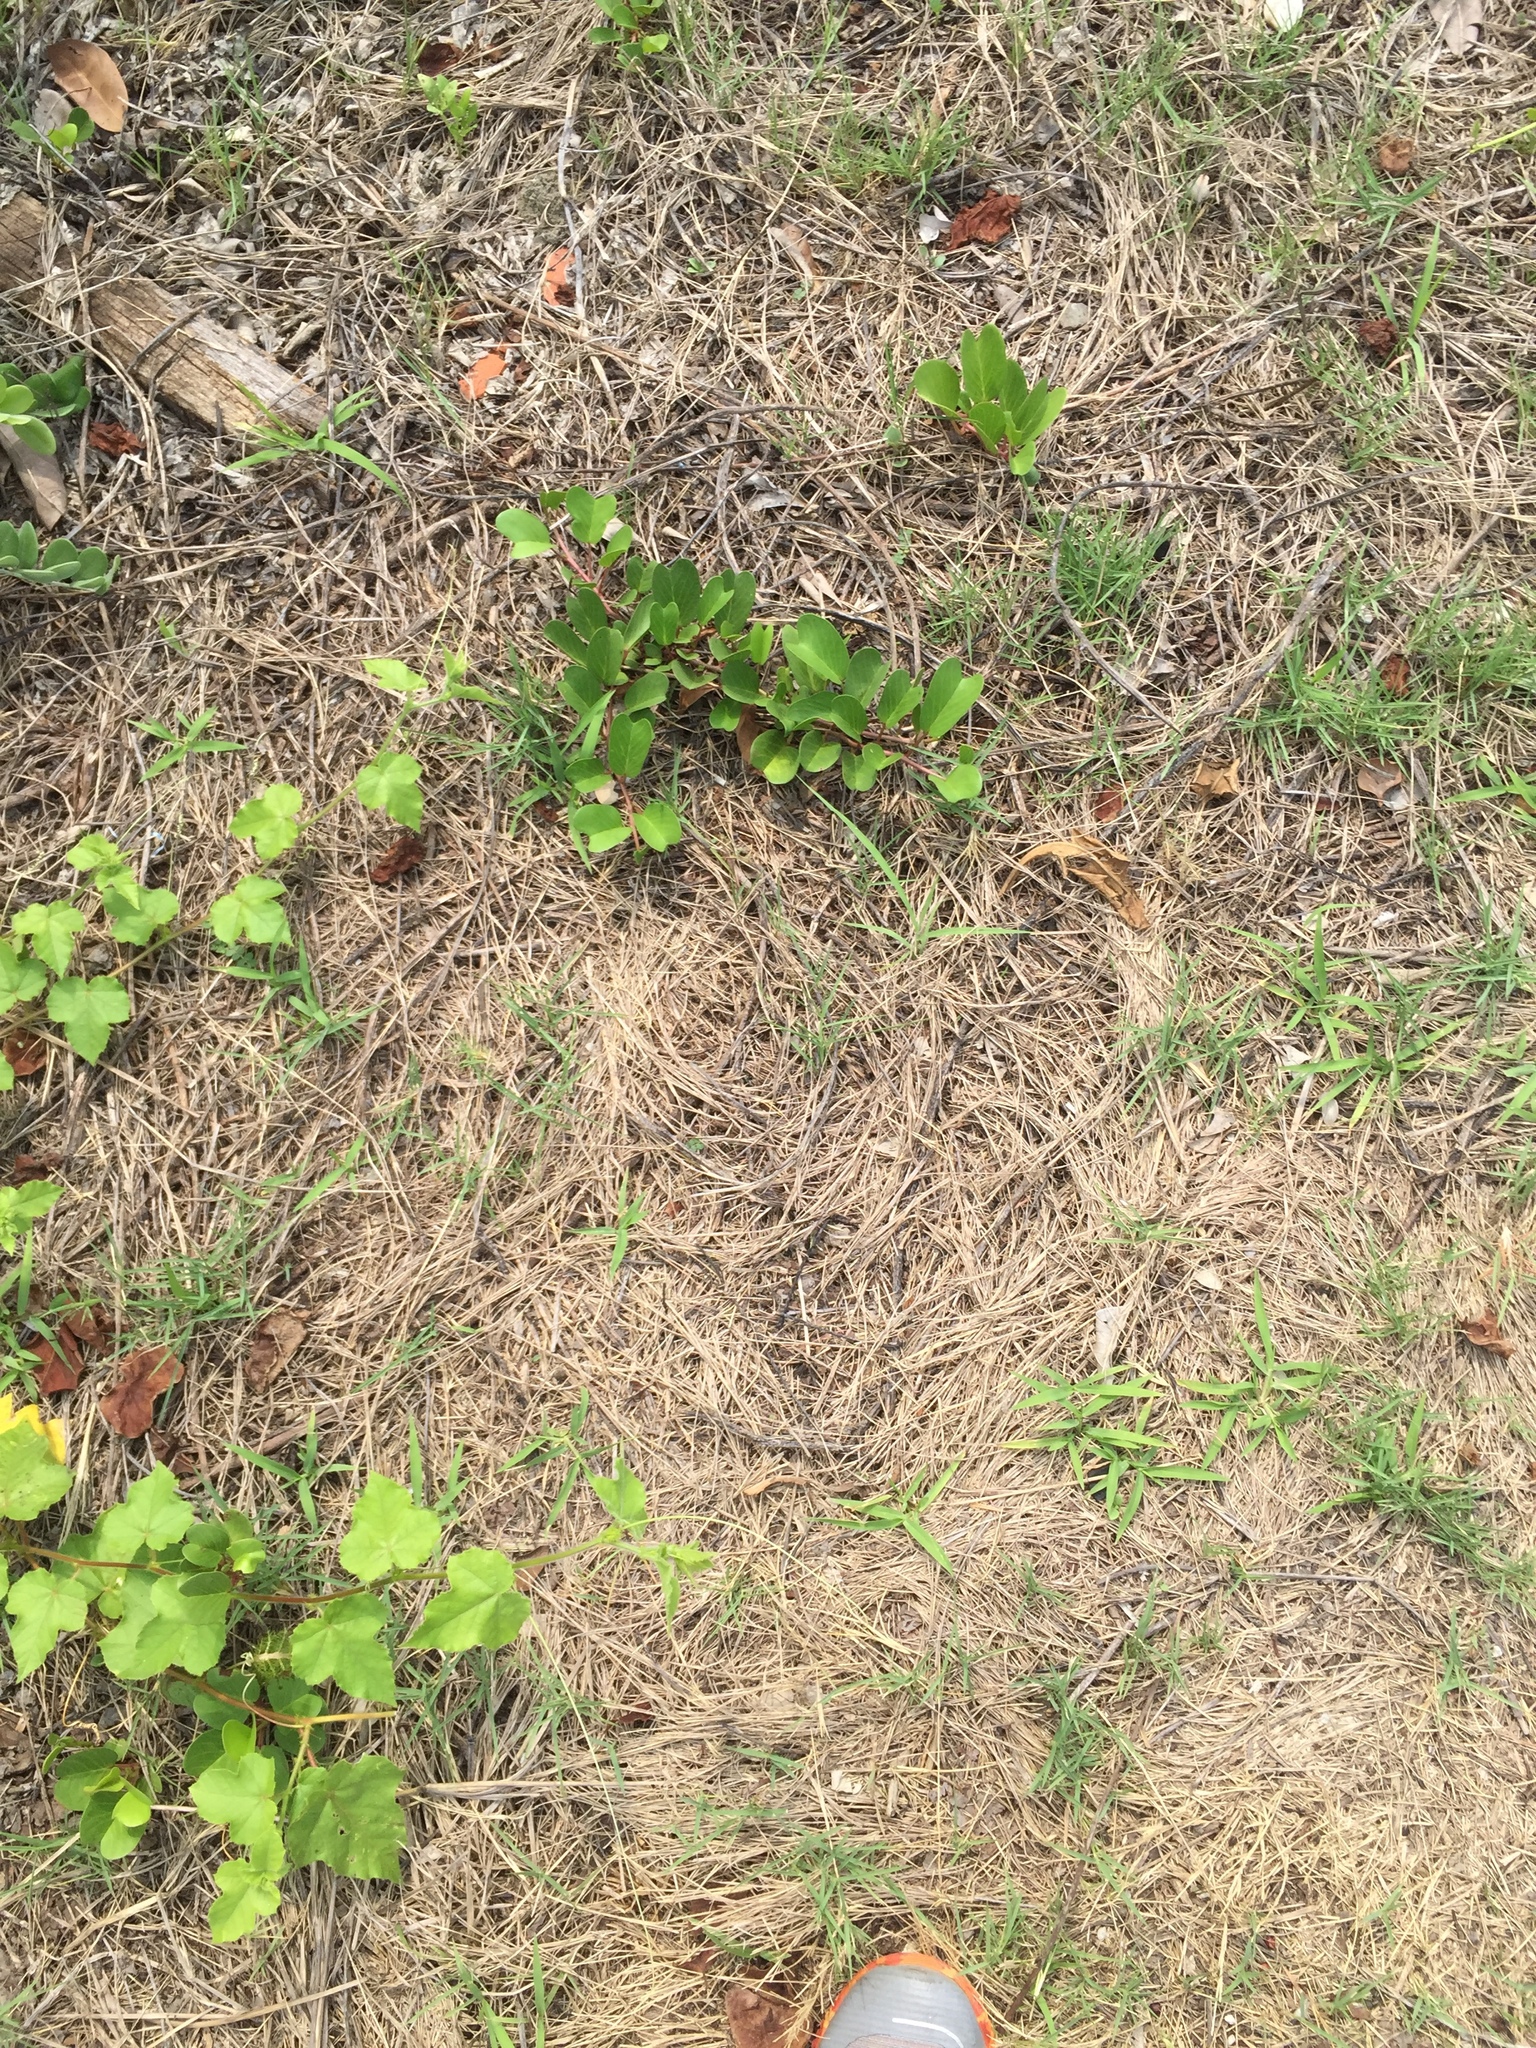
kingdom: Plantae
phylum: Tracheophyta
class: Magnoliopsida
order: Solanales
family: Convolvulaceae
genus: Ipomoea
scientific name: Ipomoea pes-caprae
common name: Beach morning glory
